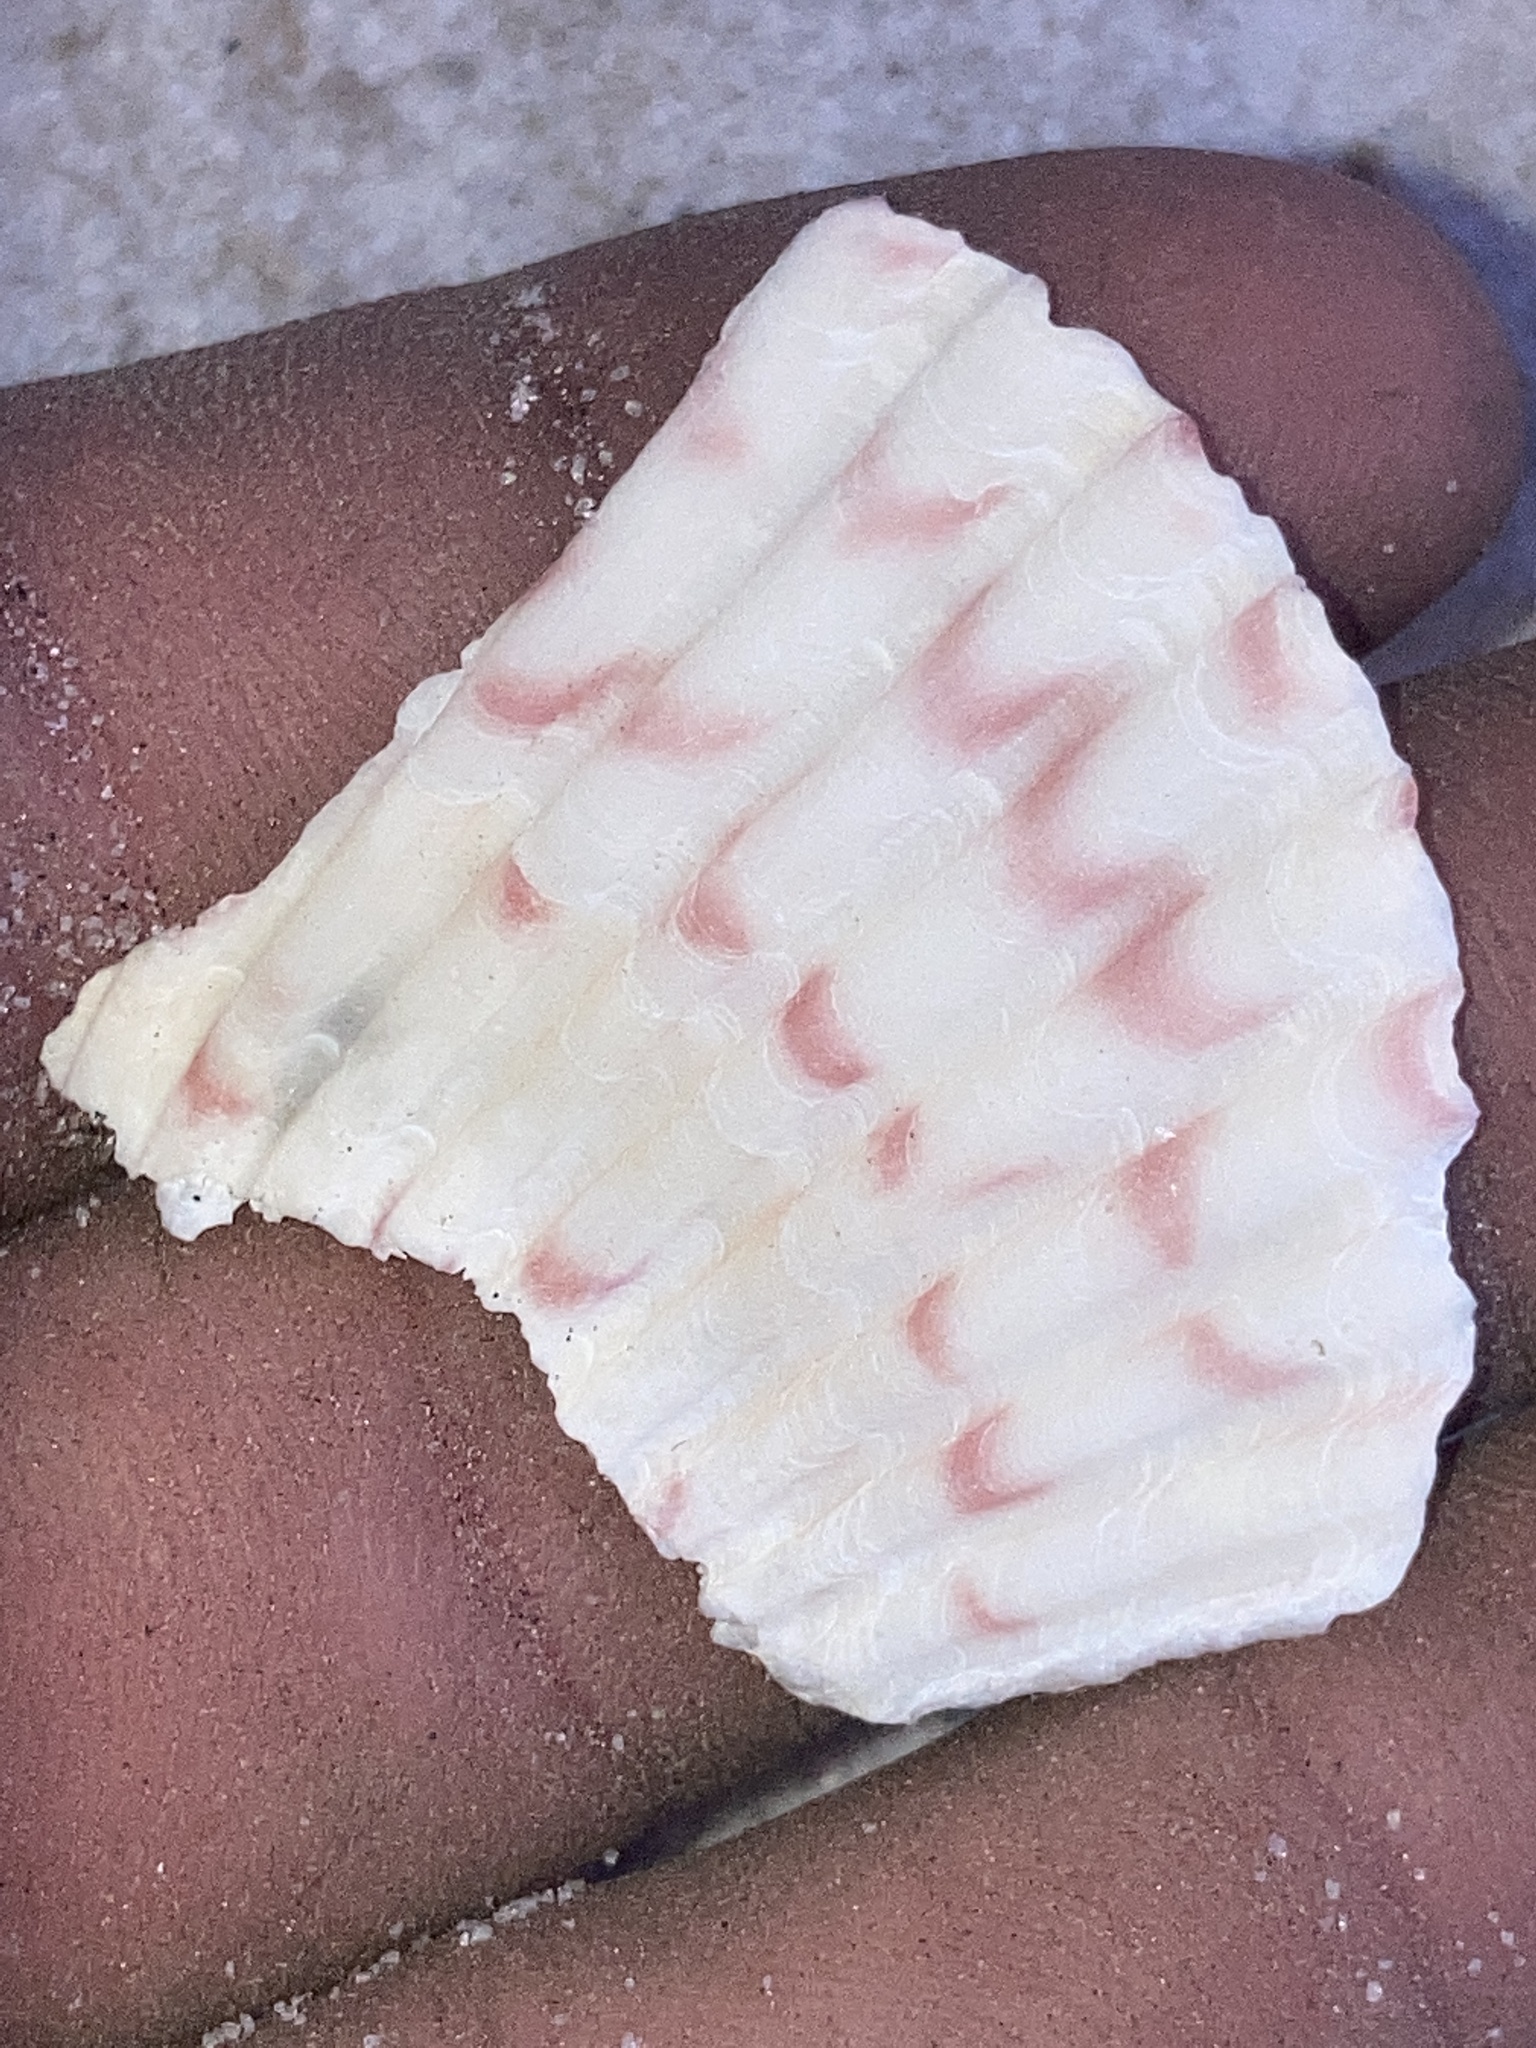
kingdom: Animalia
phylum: Mollusca
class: Bivalvia
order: Pectinida
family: Pectinidae
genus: Argopecten
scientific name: Argopecten gibbus
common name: Atlantic calico scallop
